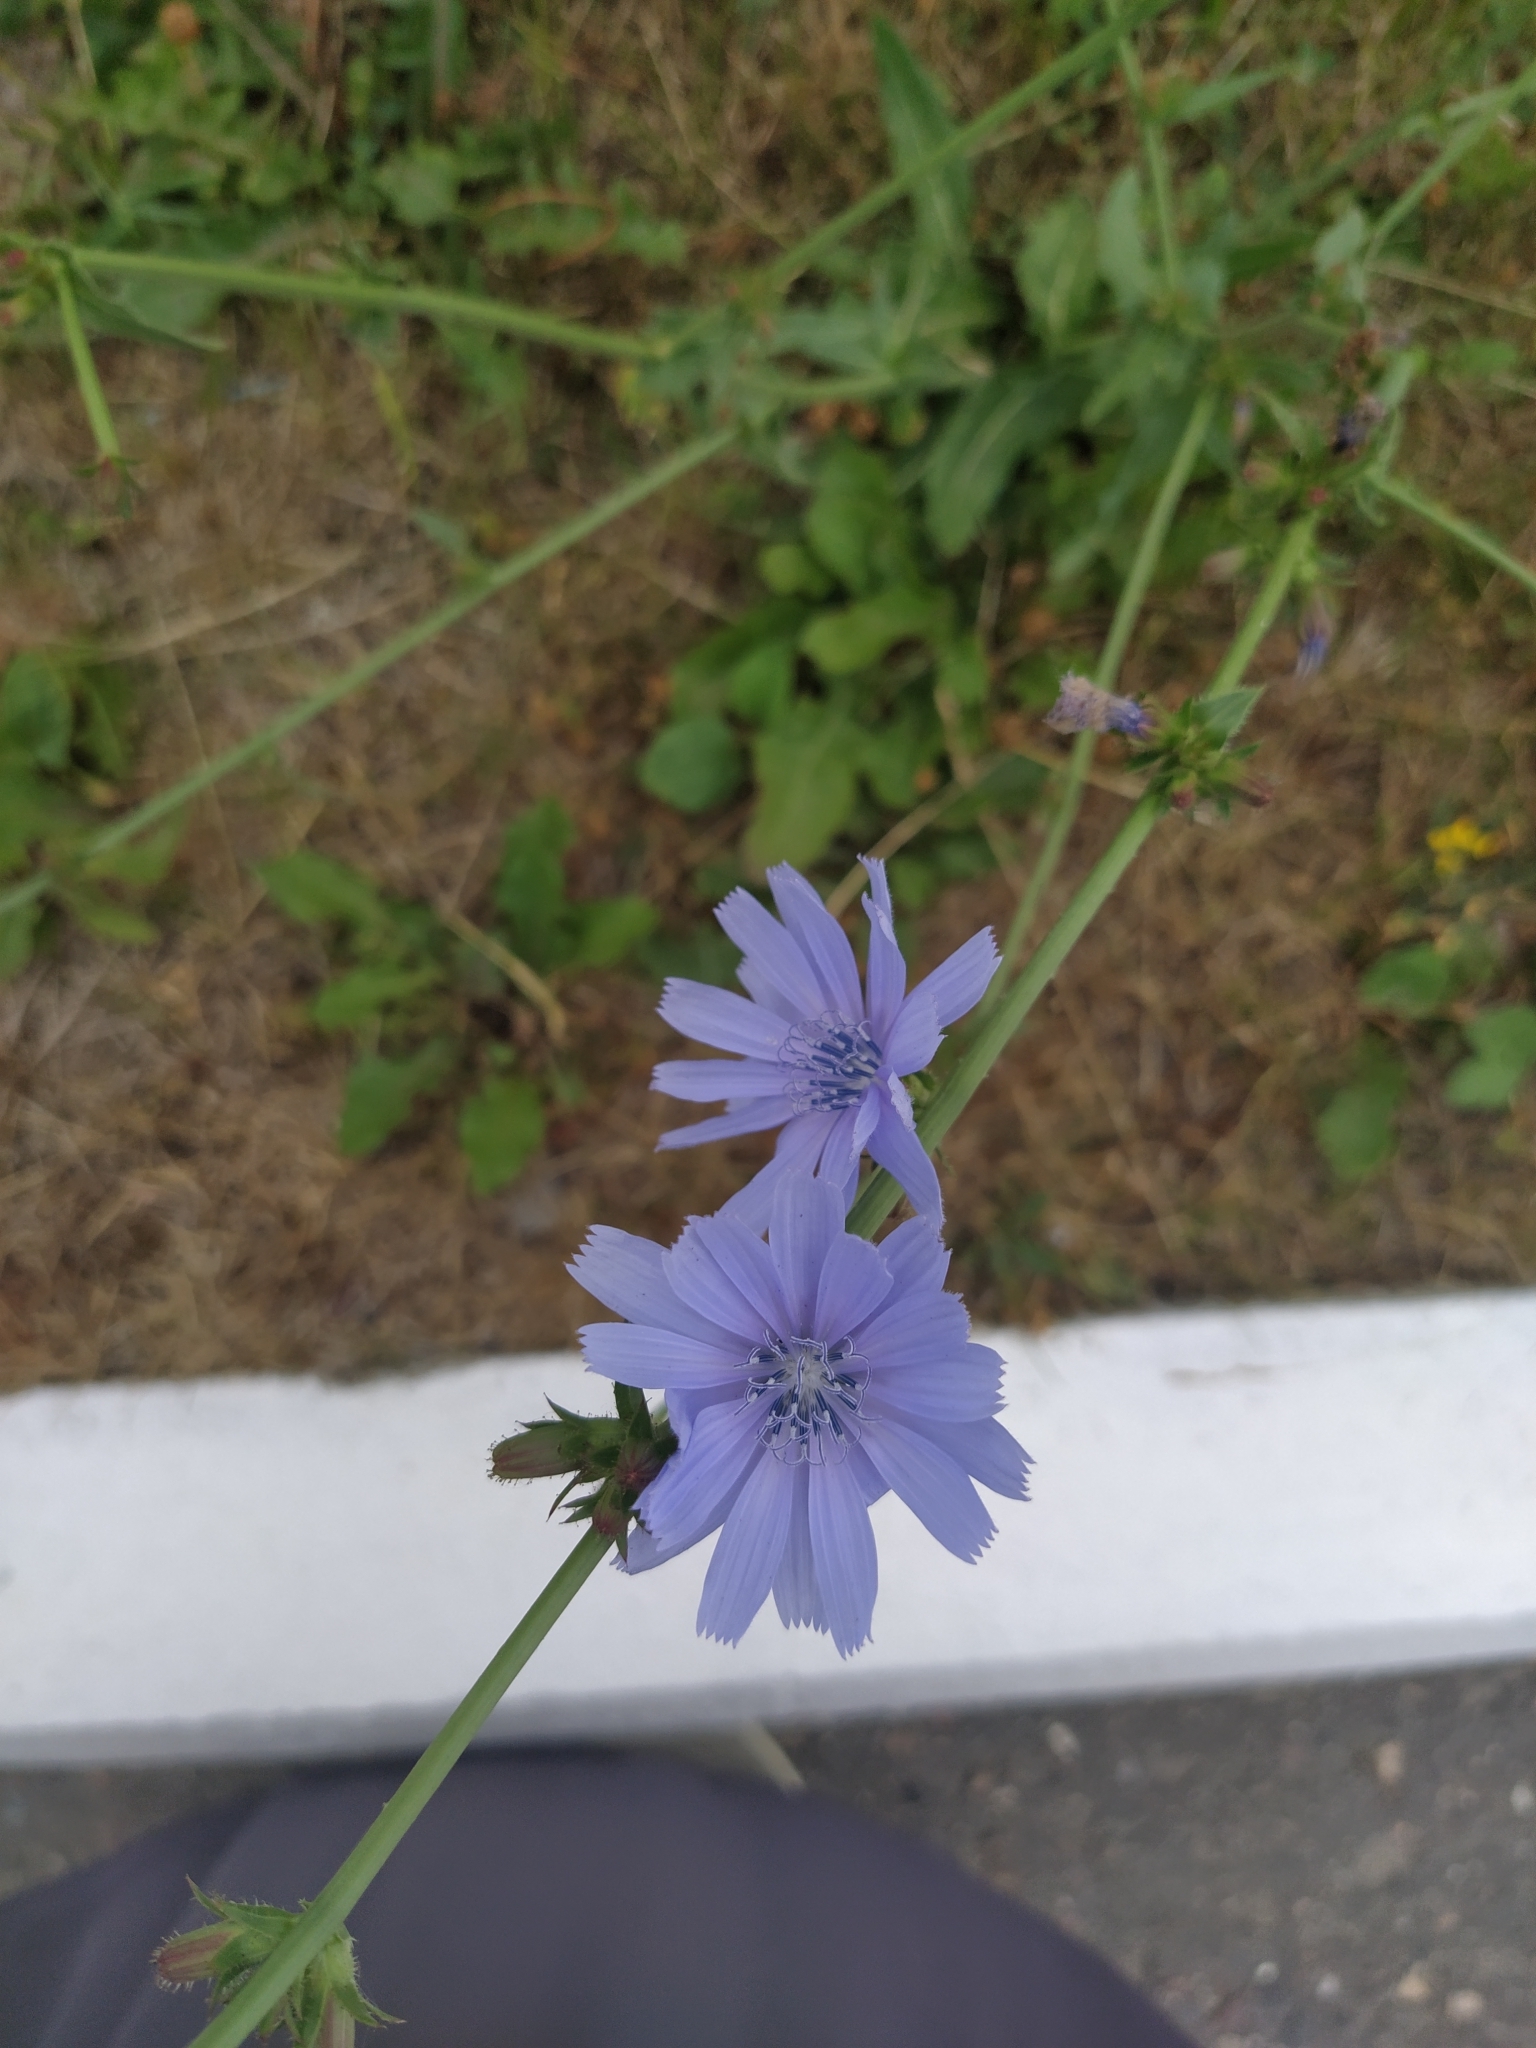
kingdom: Plantae
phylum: Tracheophyta
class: Magnoliopsida
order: Asterales
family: Asteraceae
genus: Cichorium
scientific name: Cichorium intybus
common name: Chicory
